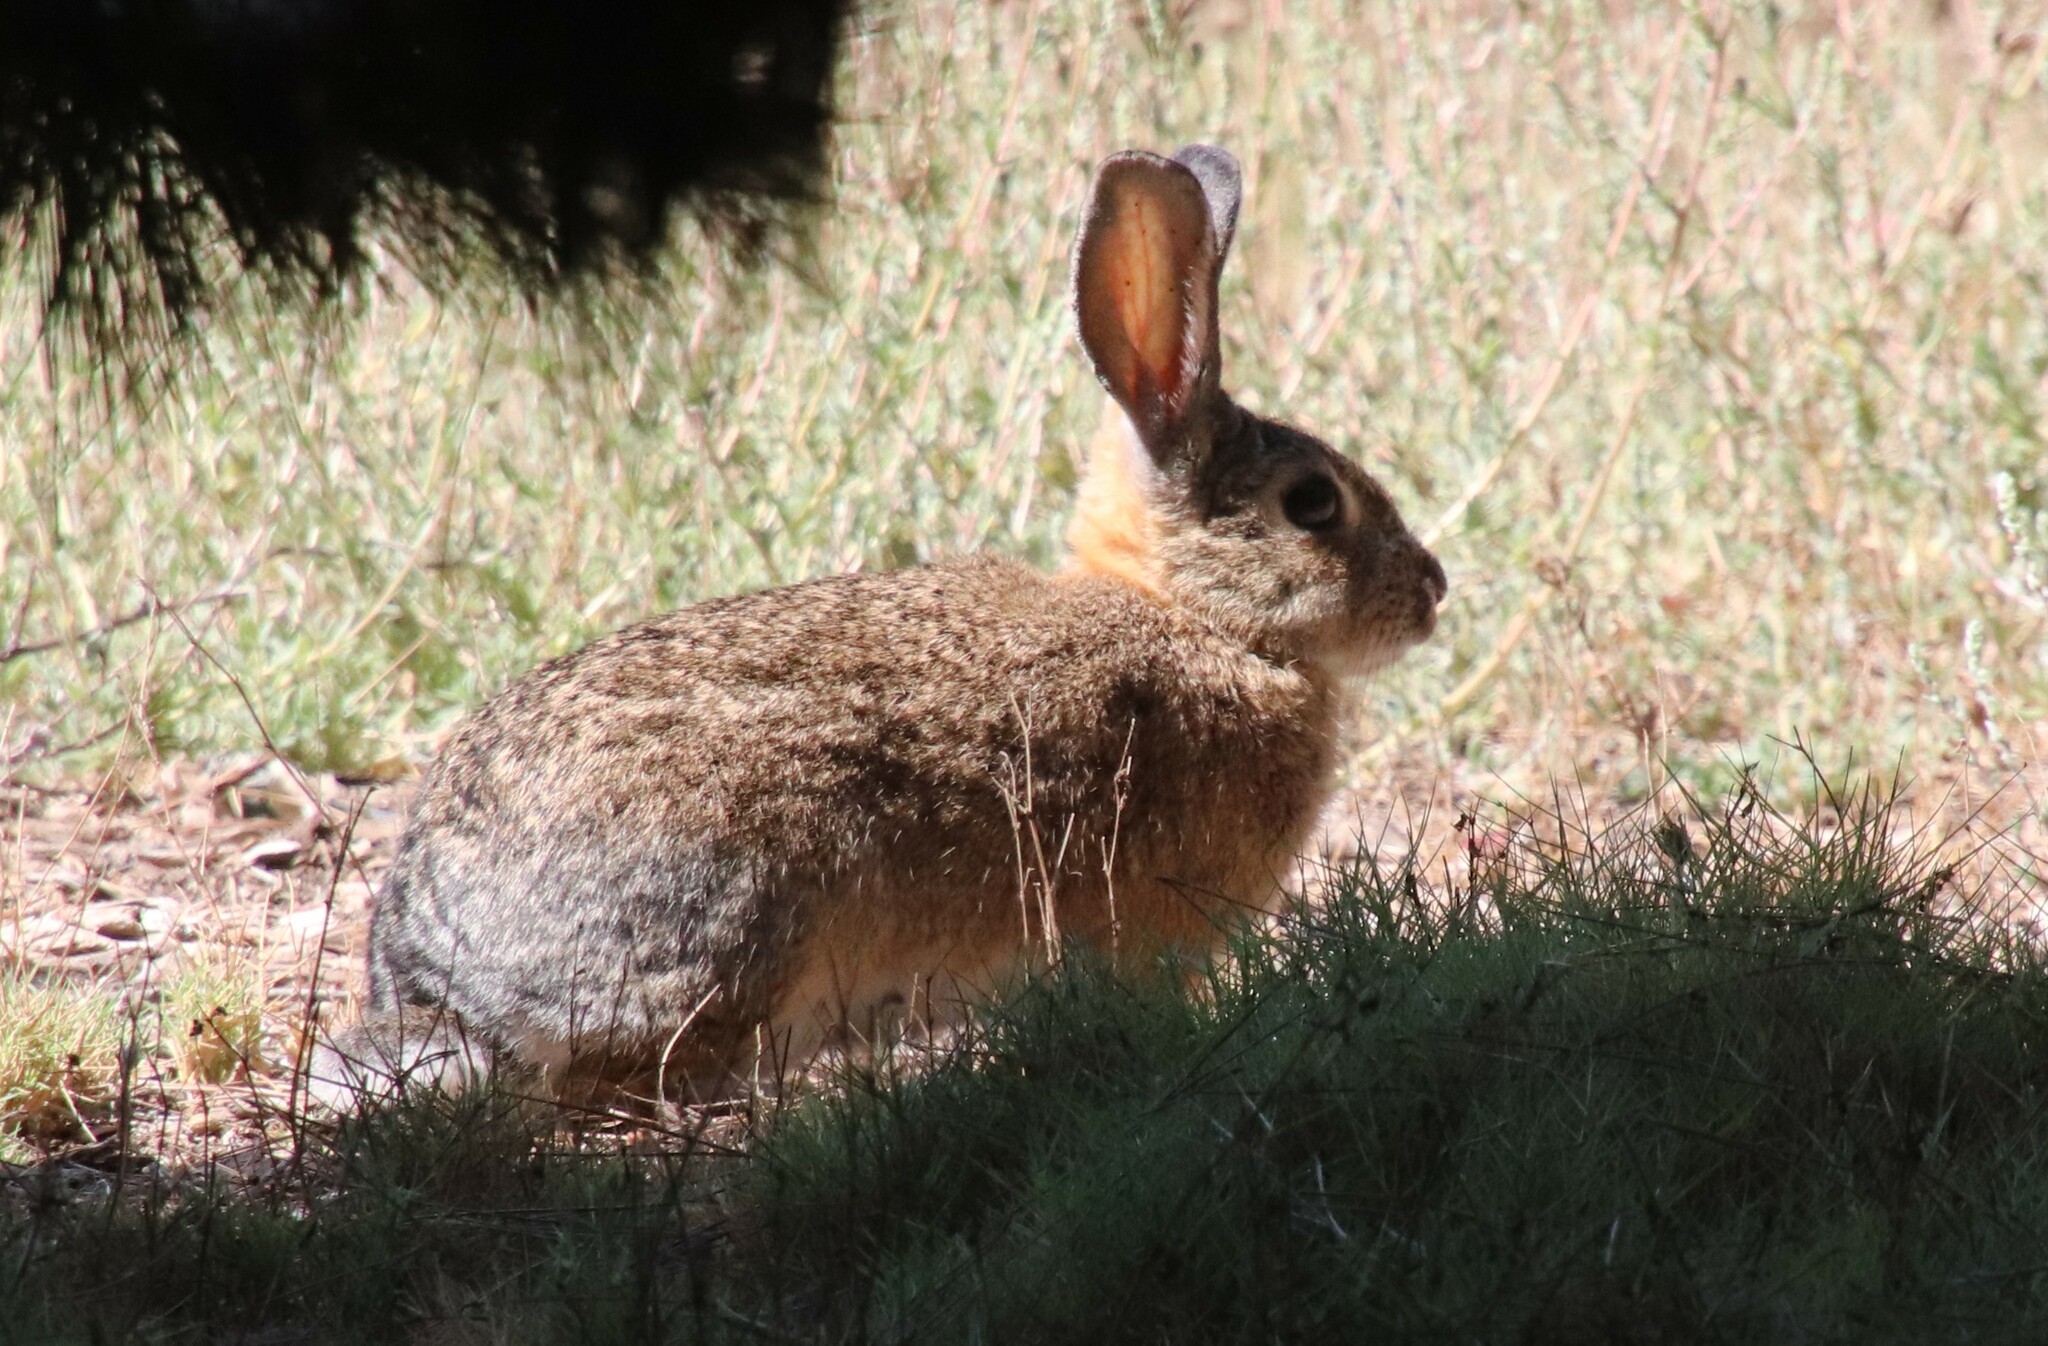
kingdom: Animalia
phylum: Chordata
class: Mammalia
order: Lagomorpha
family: Leporidae
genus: Sylvilagus
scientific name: Sylvilagus audubonii
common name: Desert cottontail
